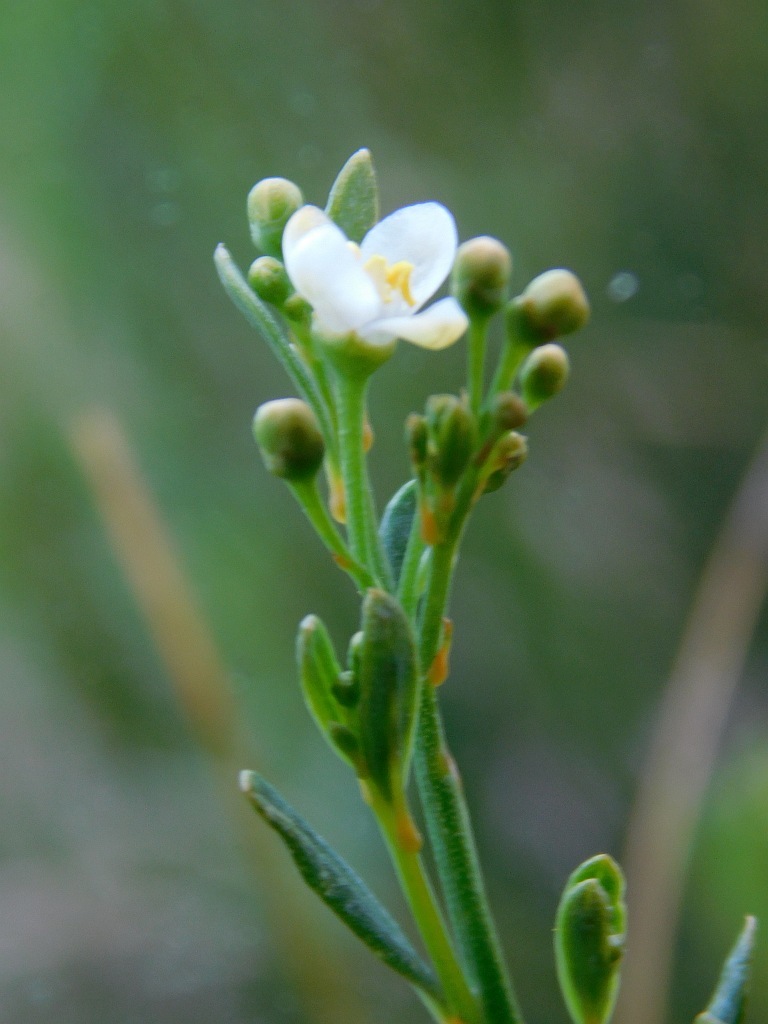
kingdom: Plantae
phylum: Tracheophyta
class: Magnoliopsida
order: Solanales
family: Montiniaceae
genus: Montinia
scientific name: Montinia caryophyllacea
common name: Wild clove-bush
